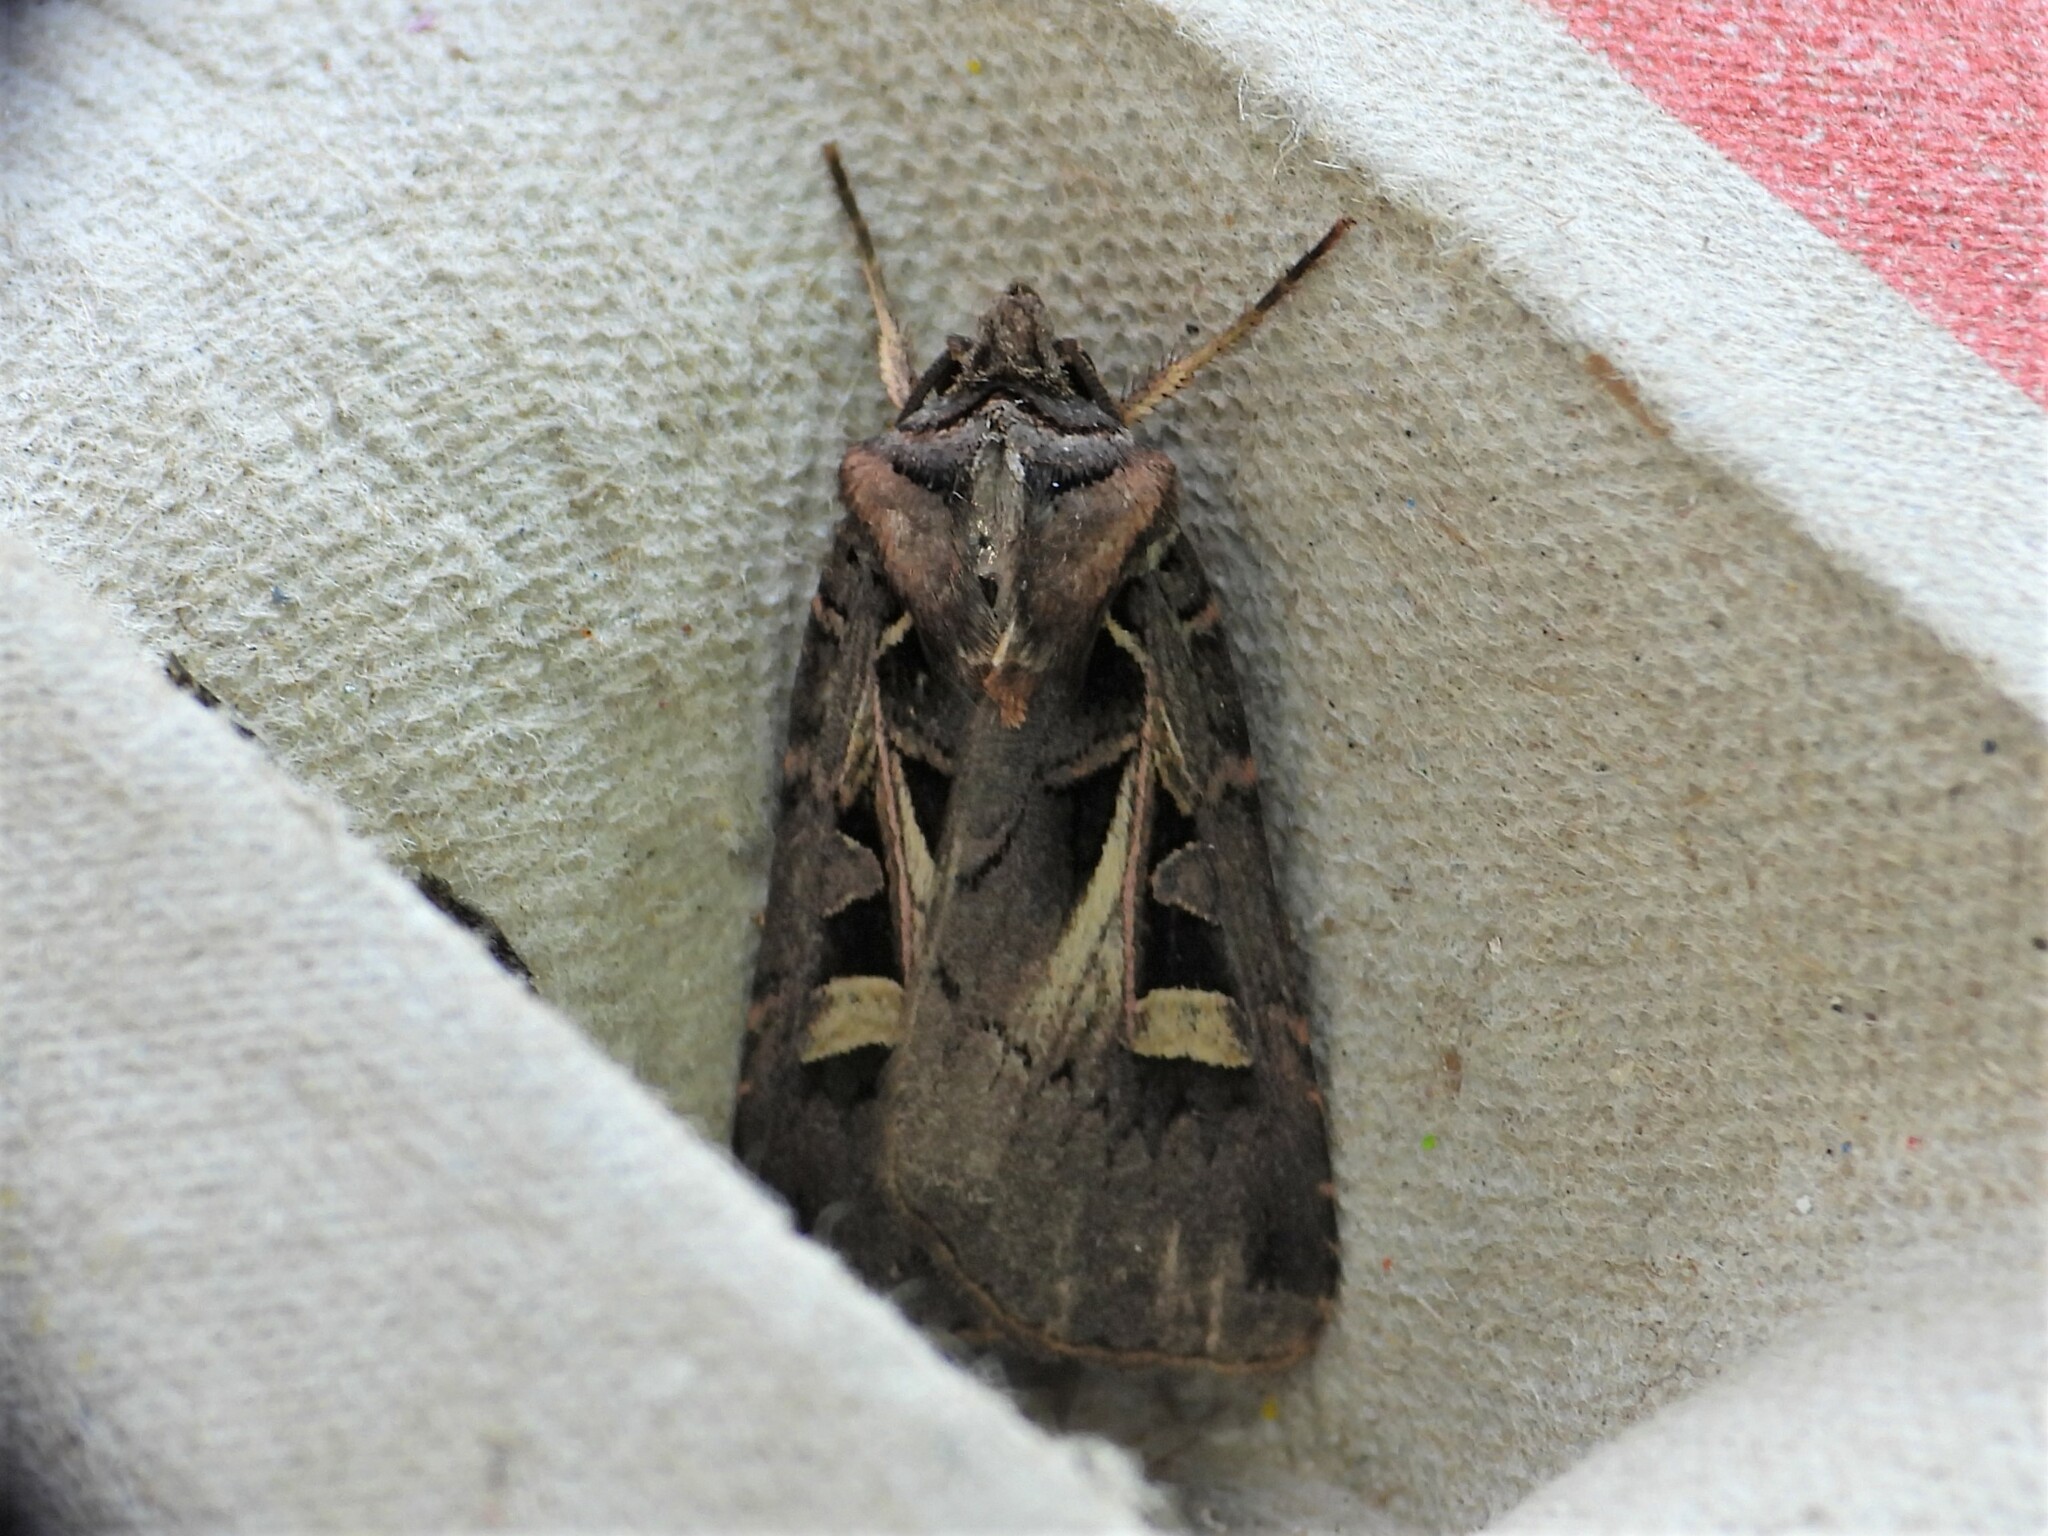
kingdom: Animalia
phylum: Arthropoda
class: Insecta
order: Lepidoptera
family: Noctuidae
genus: Feltia
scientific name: Feltia herilis
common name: Master's dart
